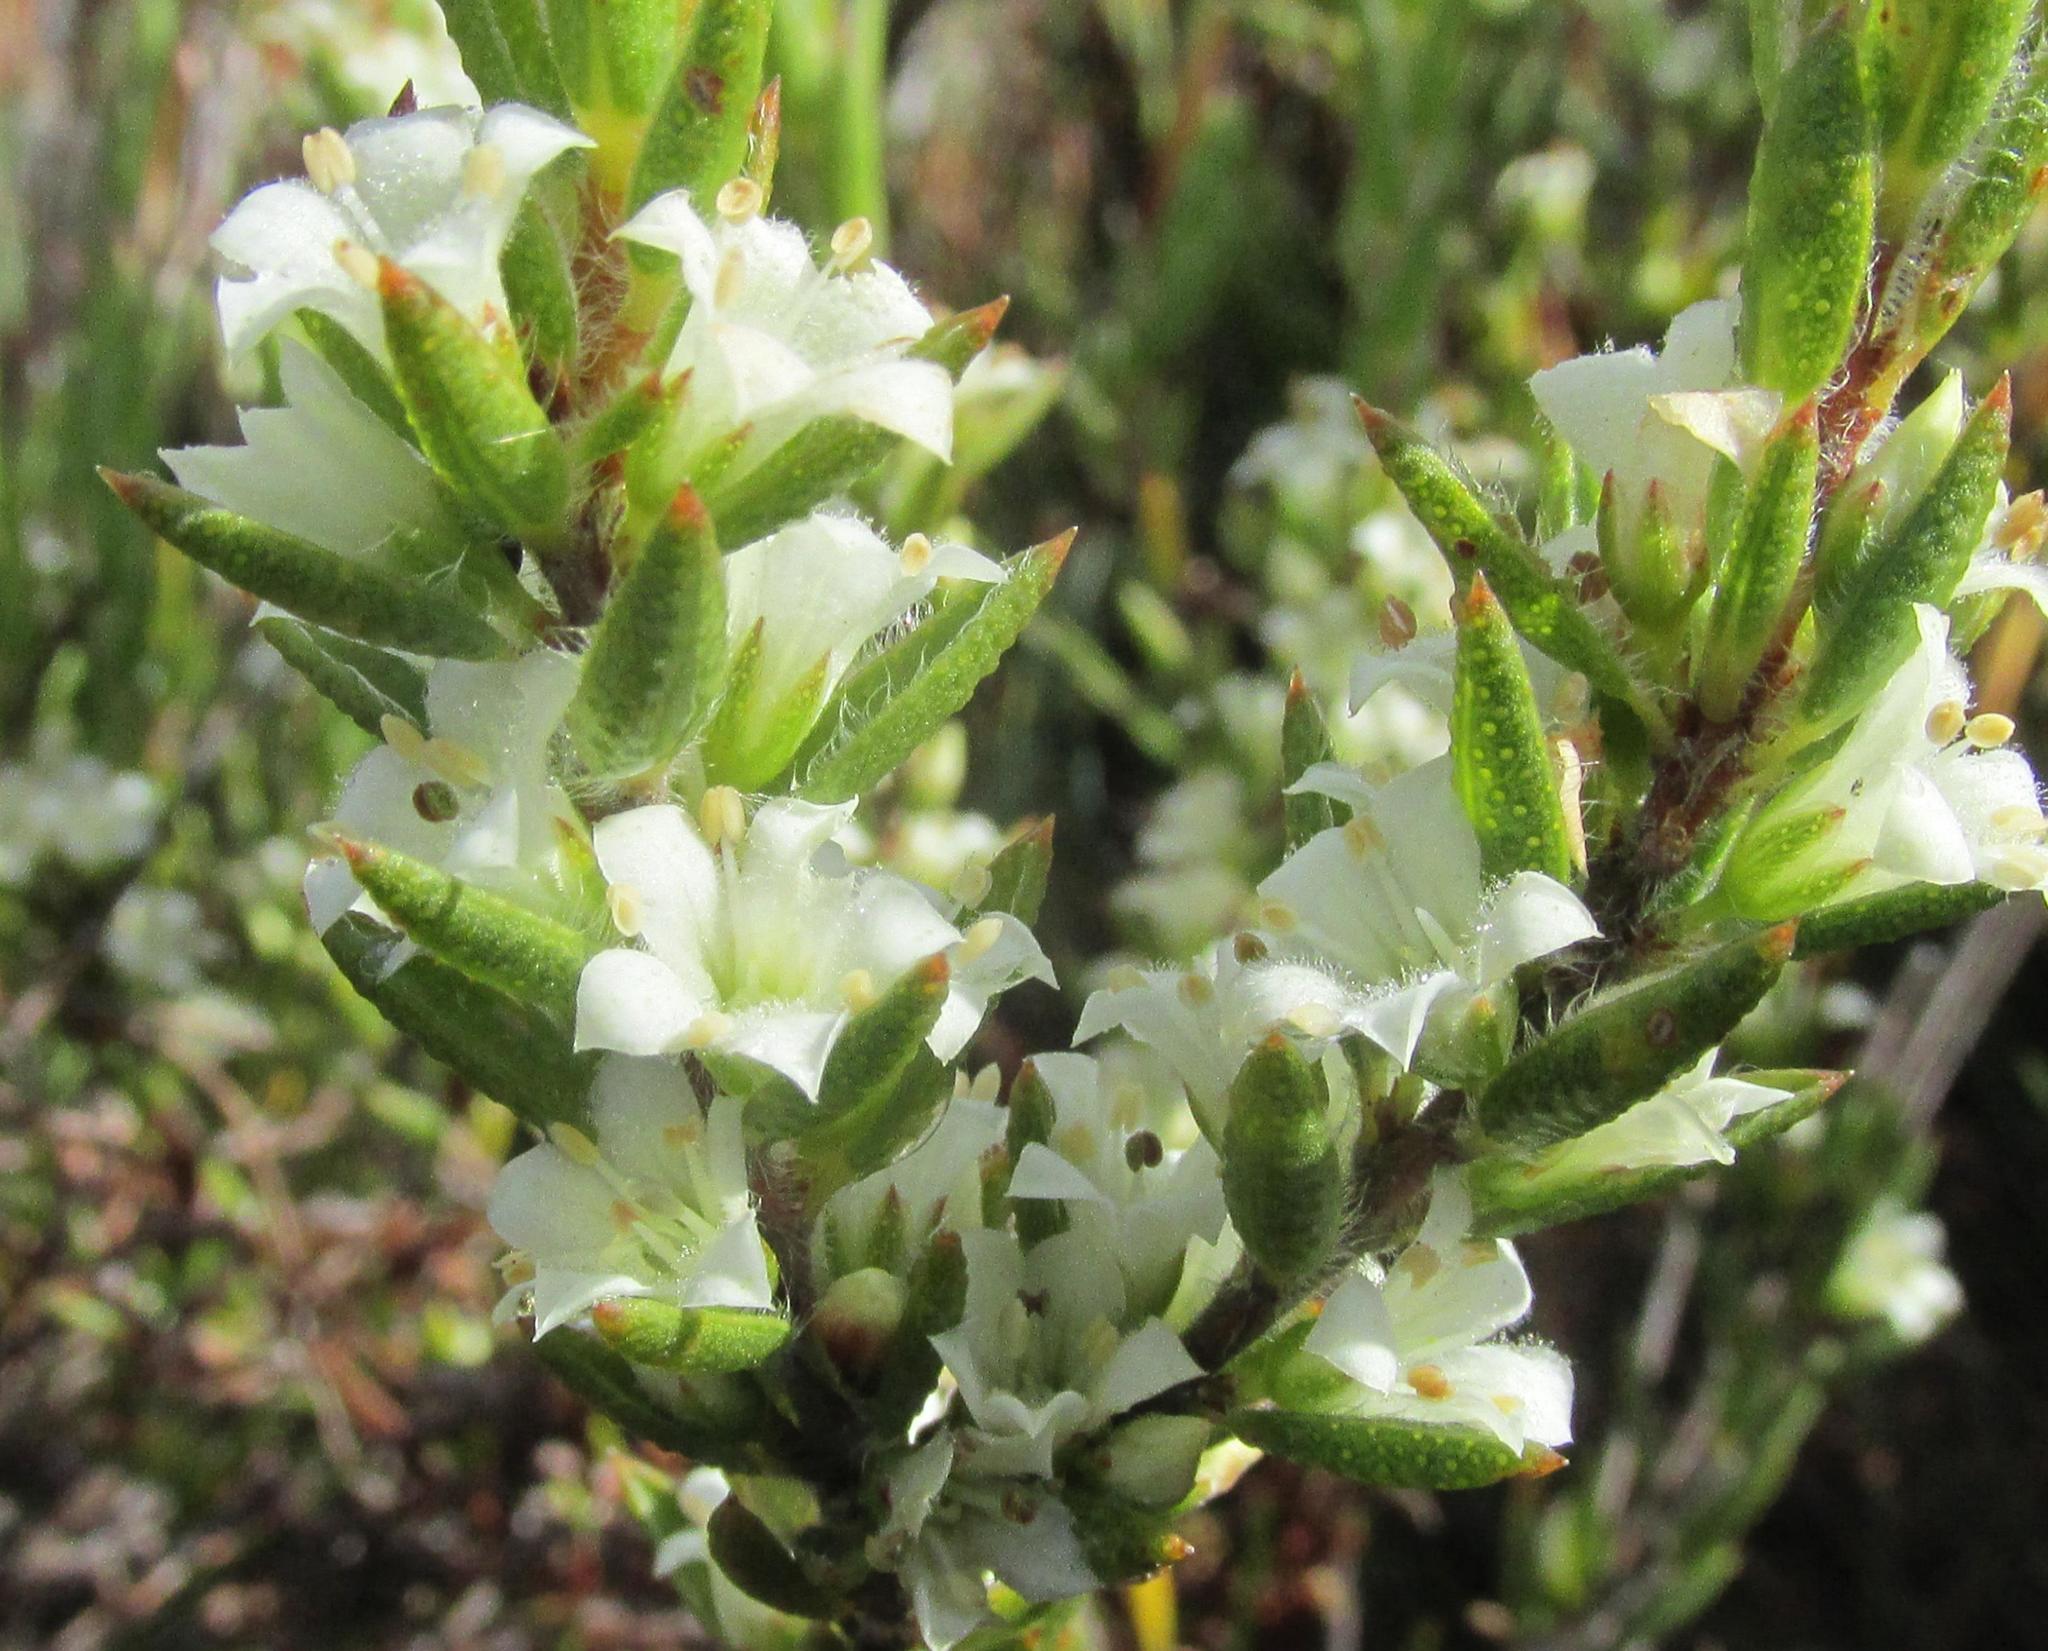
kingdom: Plantae
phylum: Tracheophyta
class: Magnoliopsida
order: Sapindales
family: Rutaceae
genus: Agathosma
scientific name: Agathosma kougaense
